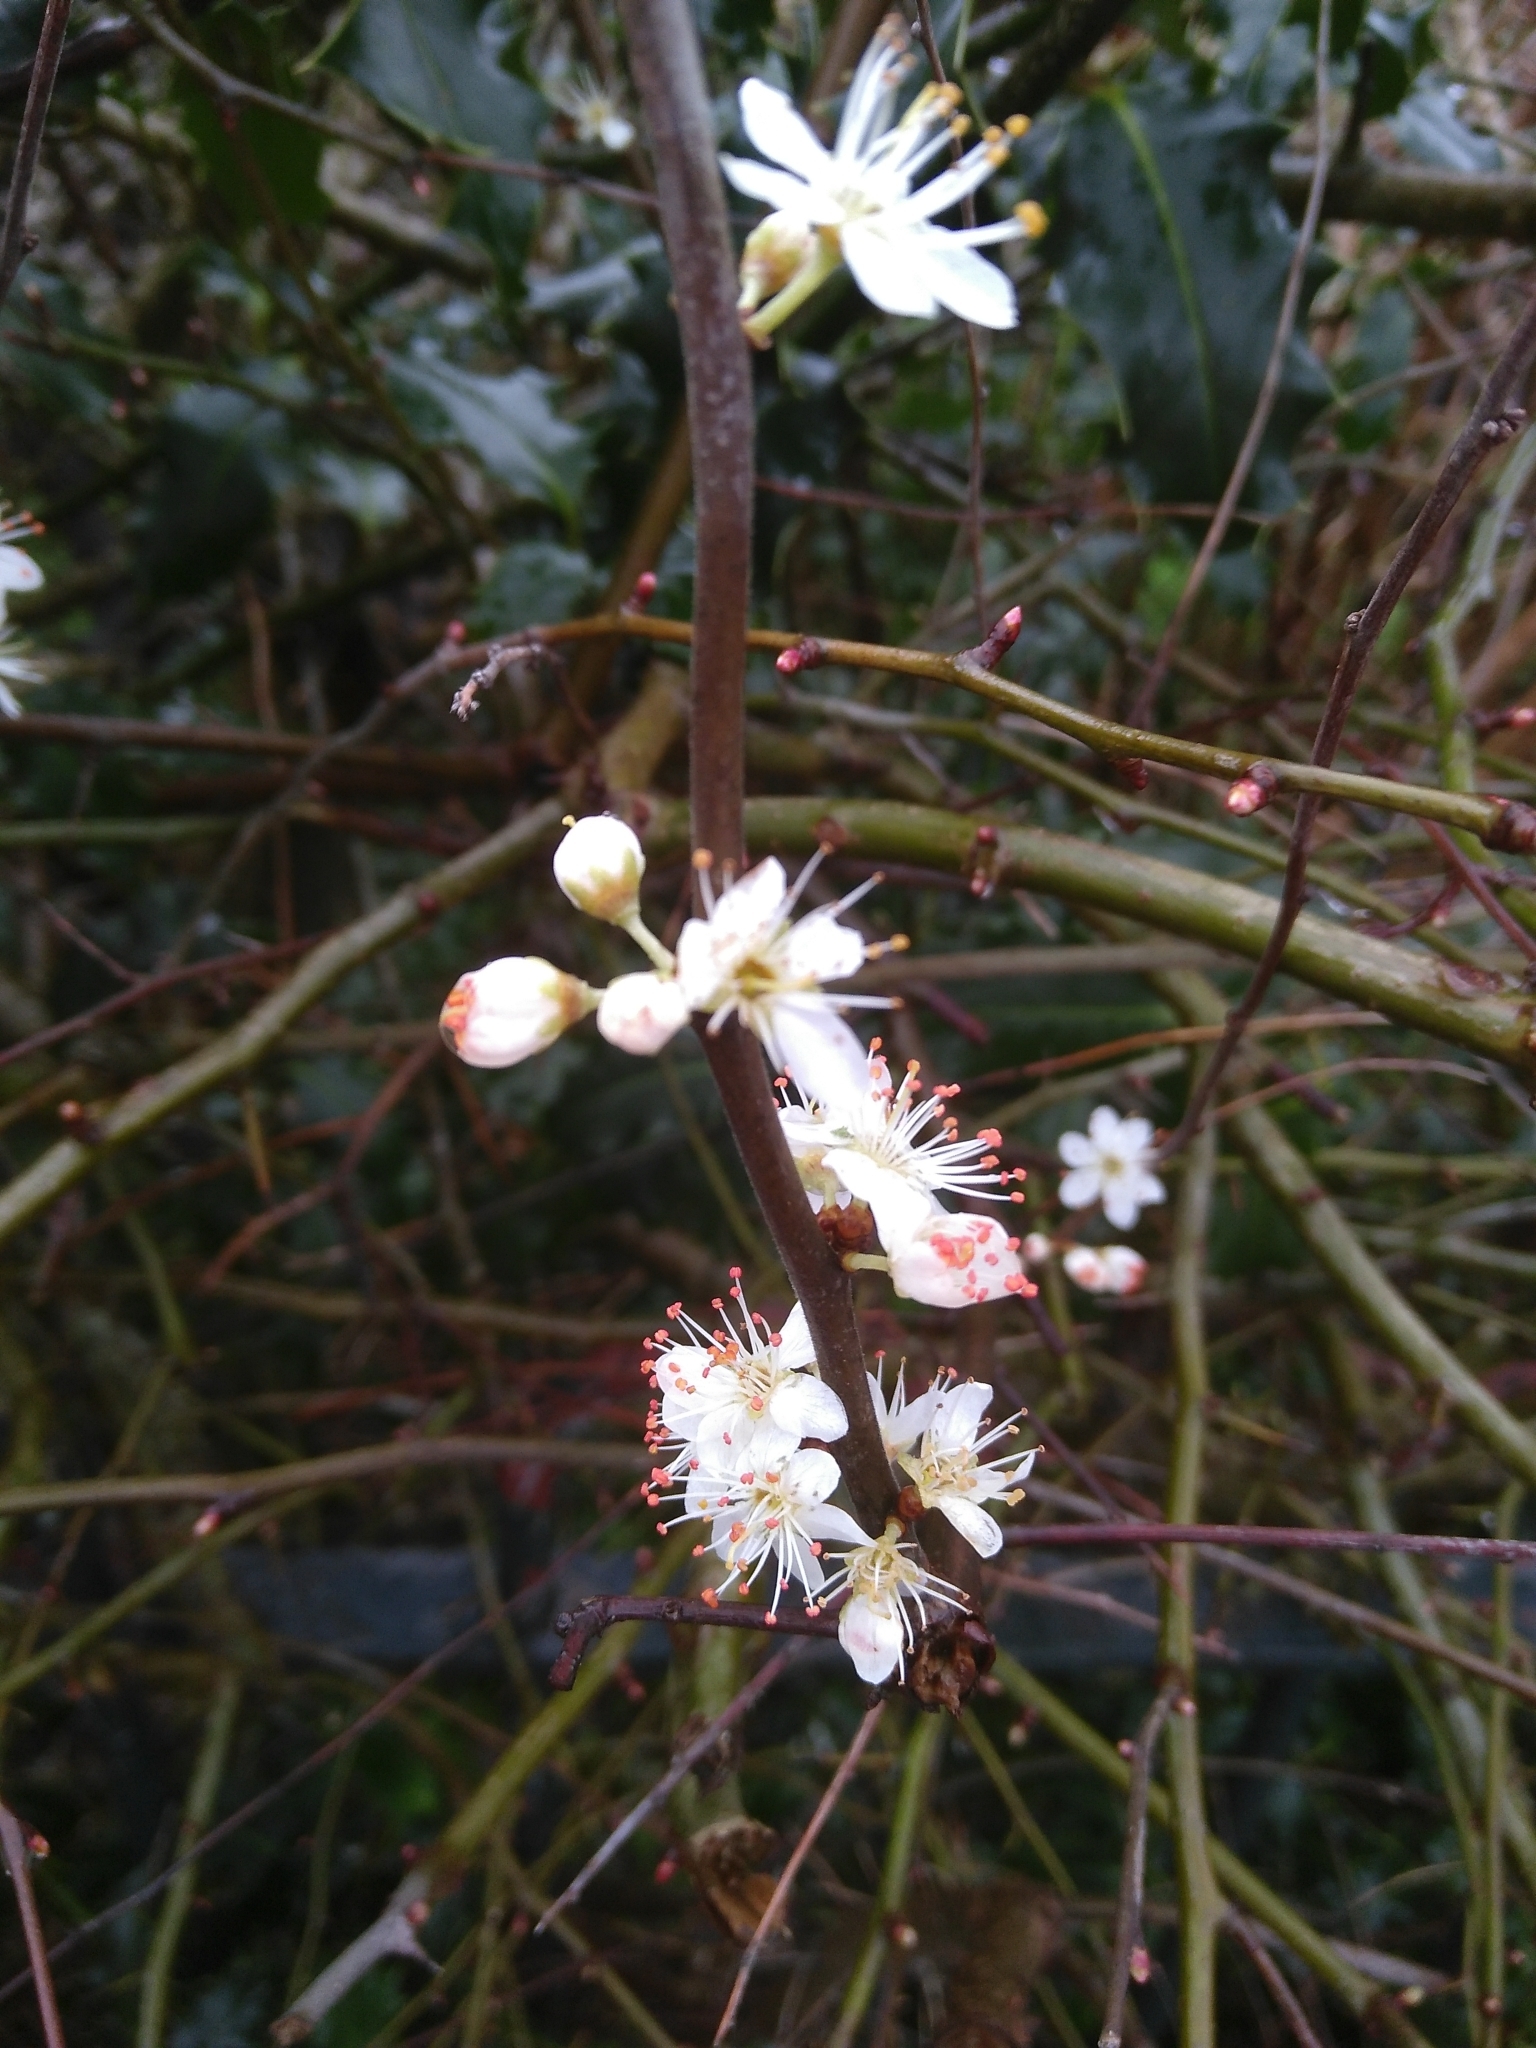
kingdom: Plantae
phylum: Tracheophyta
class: Magnoliopsida
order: Rosales
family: Rosaceae
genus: Prunus
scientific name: Prunus cerasifera
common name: Cherry plum
